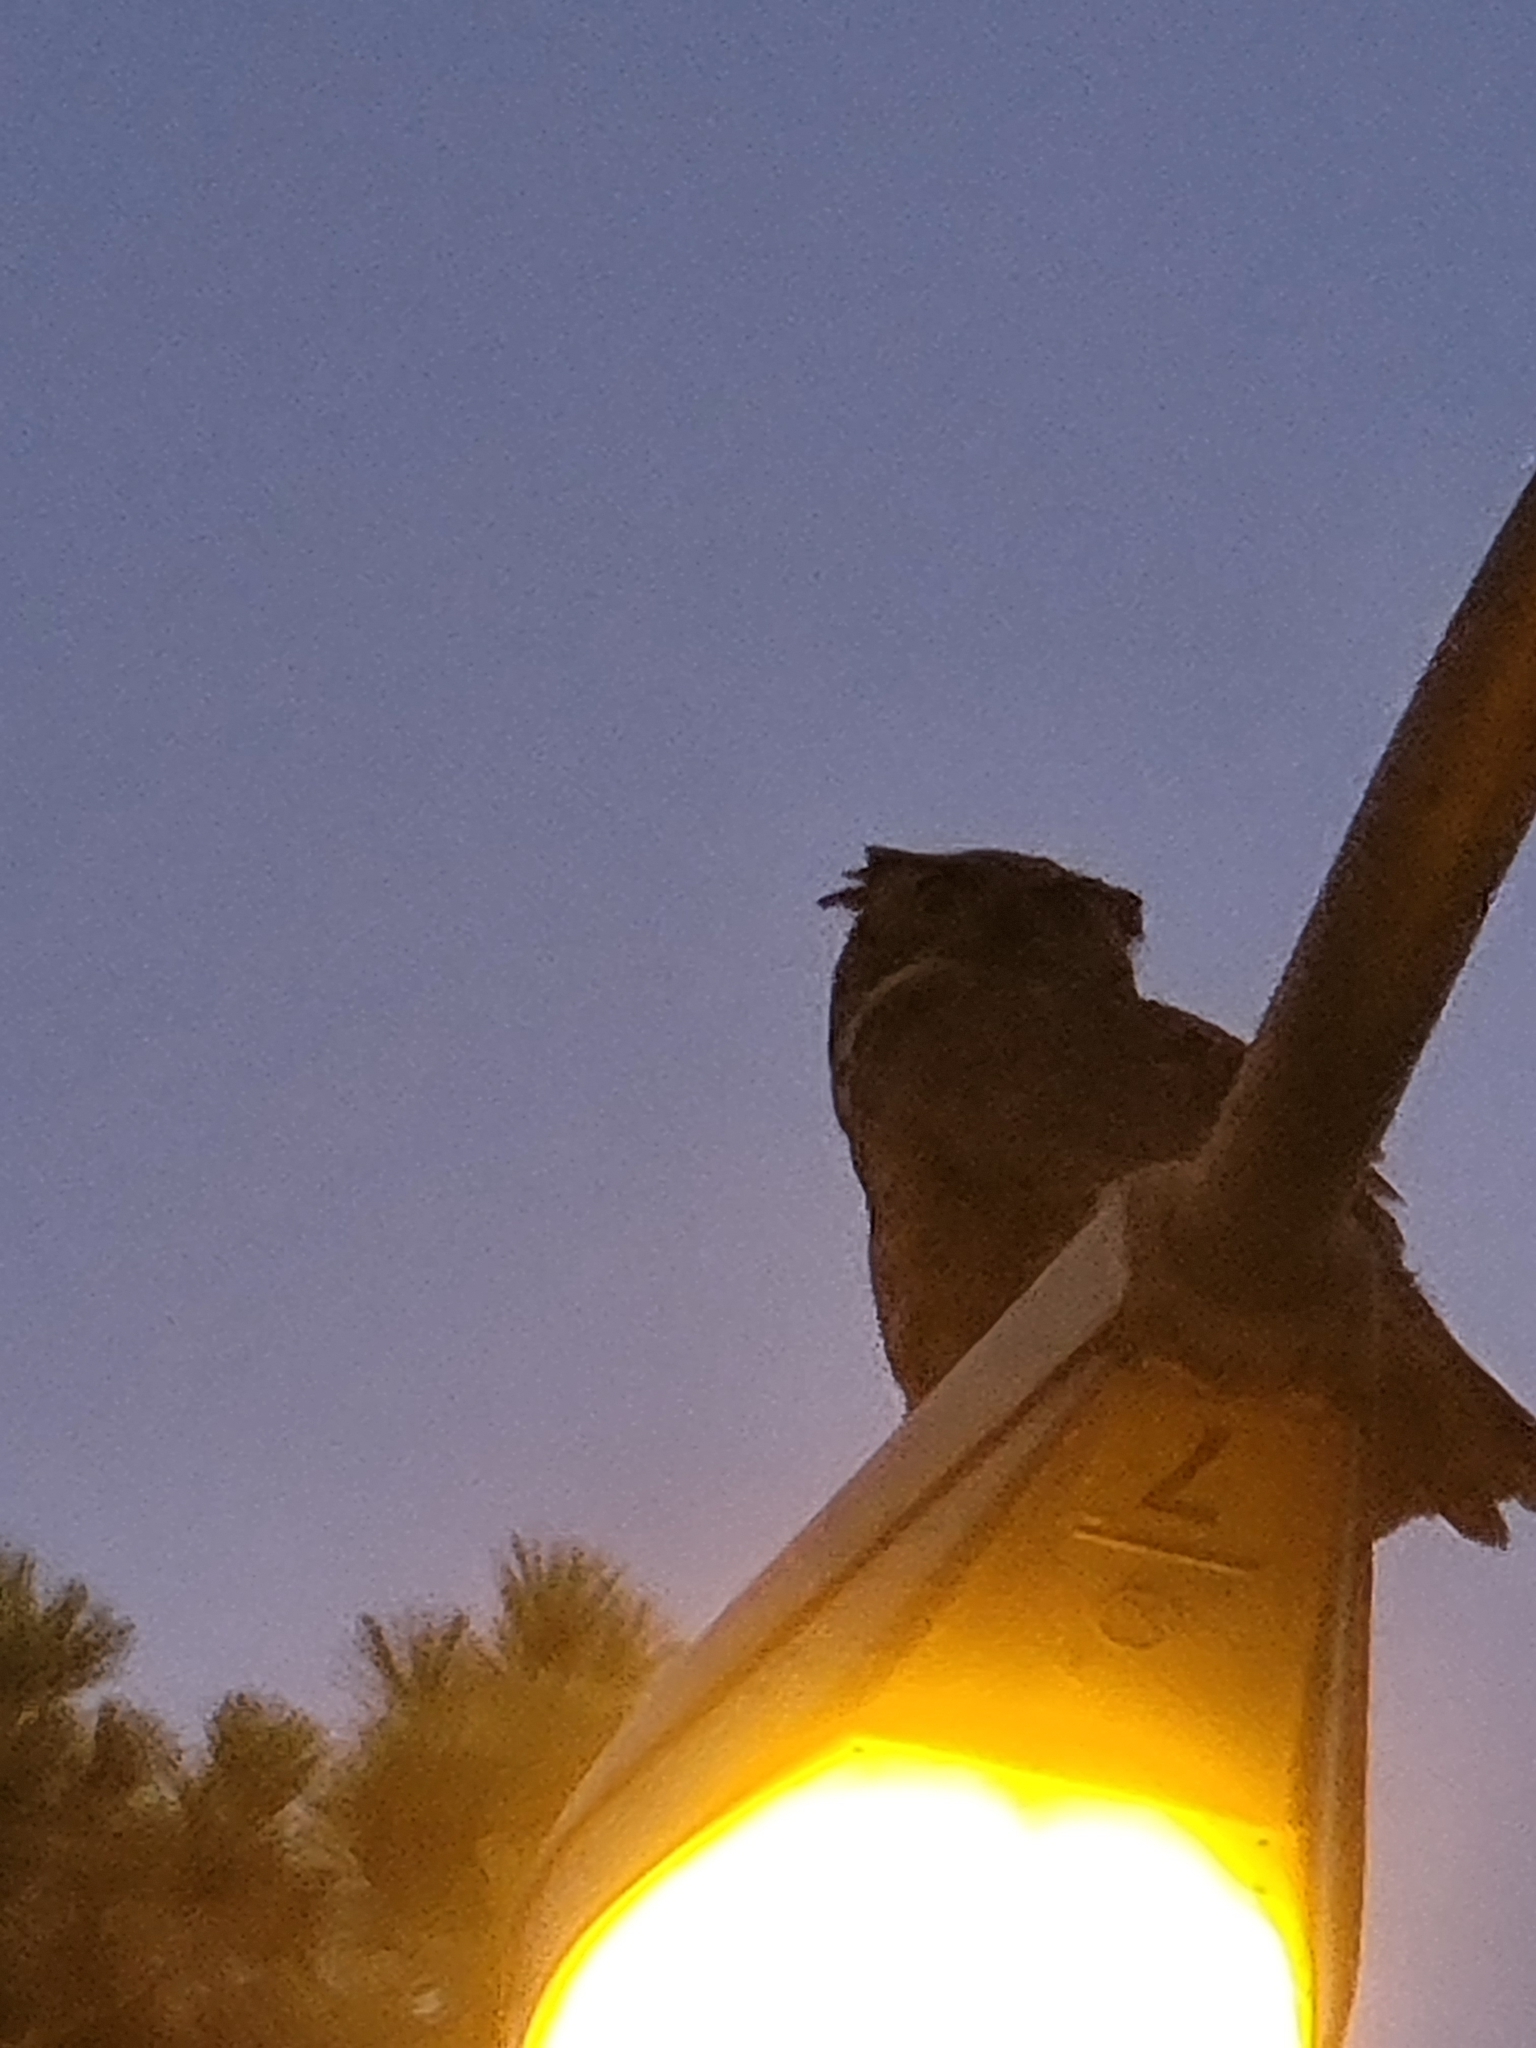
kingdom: Animalia
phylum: Chordata
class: Aves
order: Strigiformes
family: Strigidae
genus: Bubo
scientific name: Bubo virginianus
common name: Great horned owl
